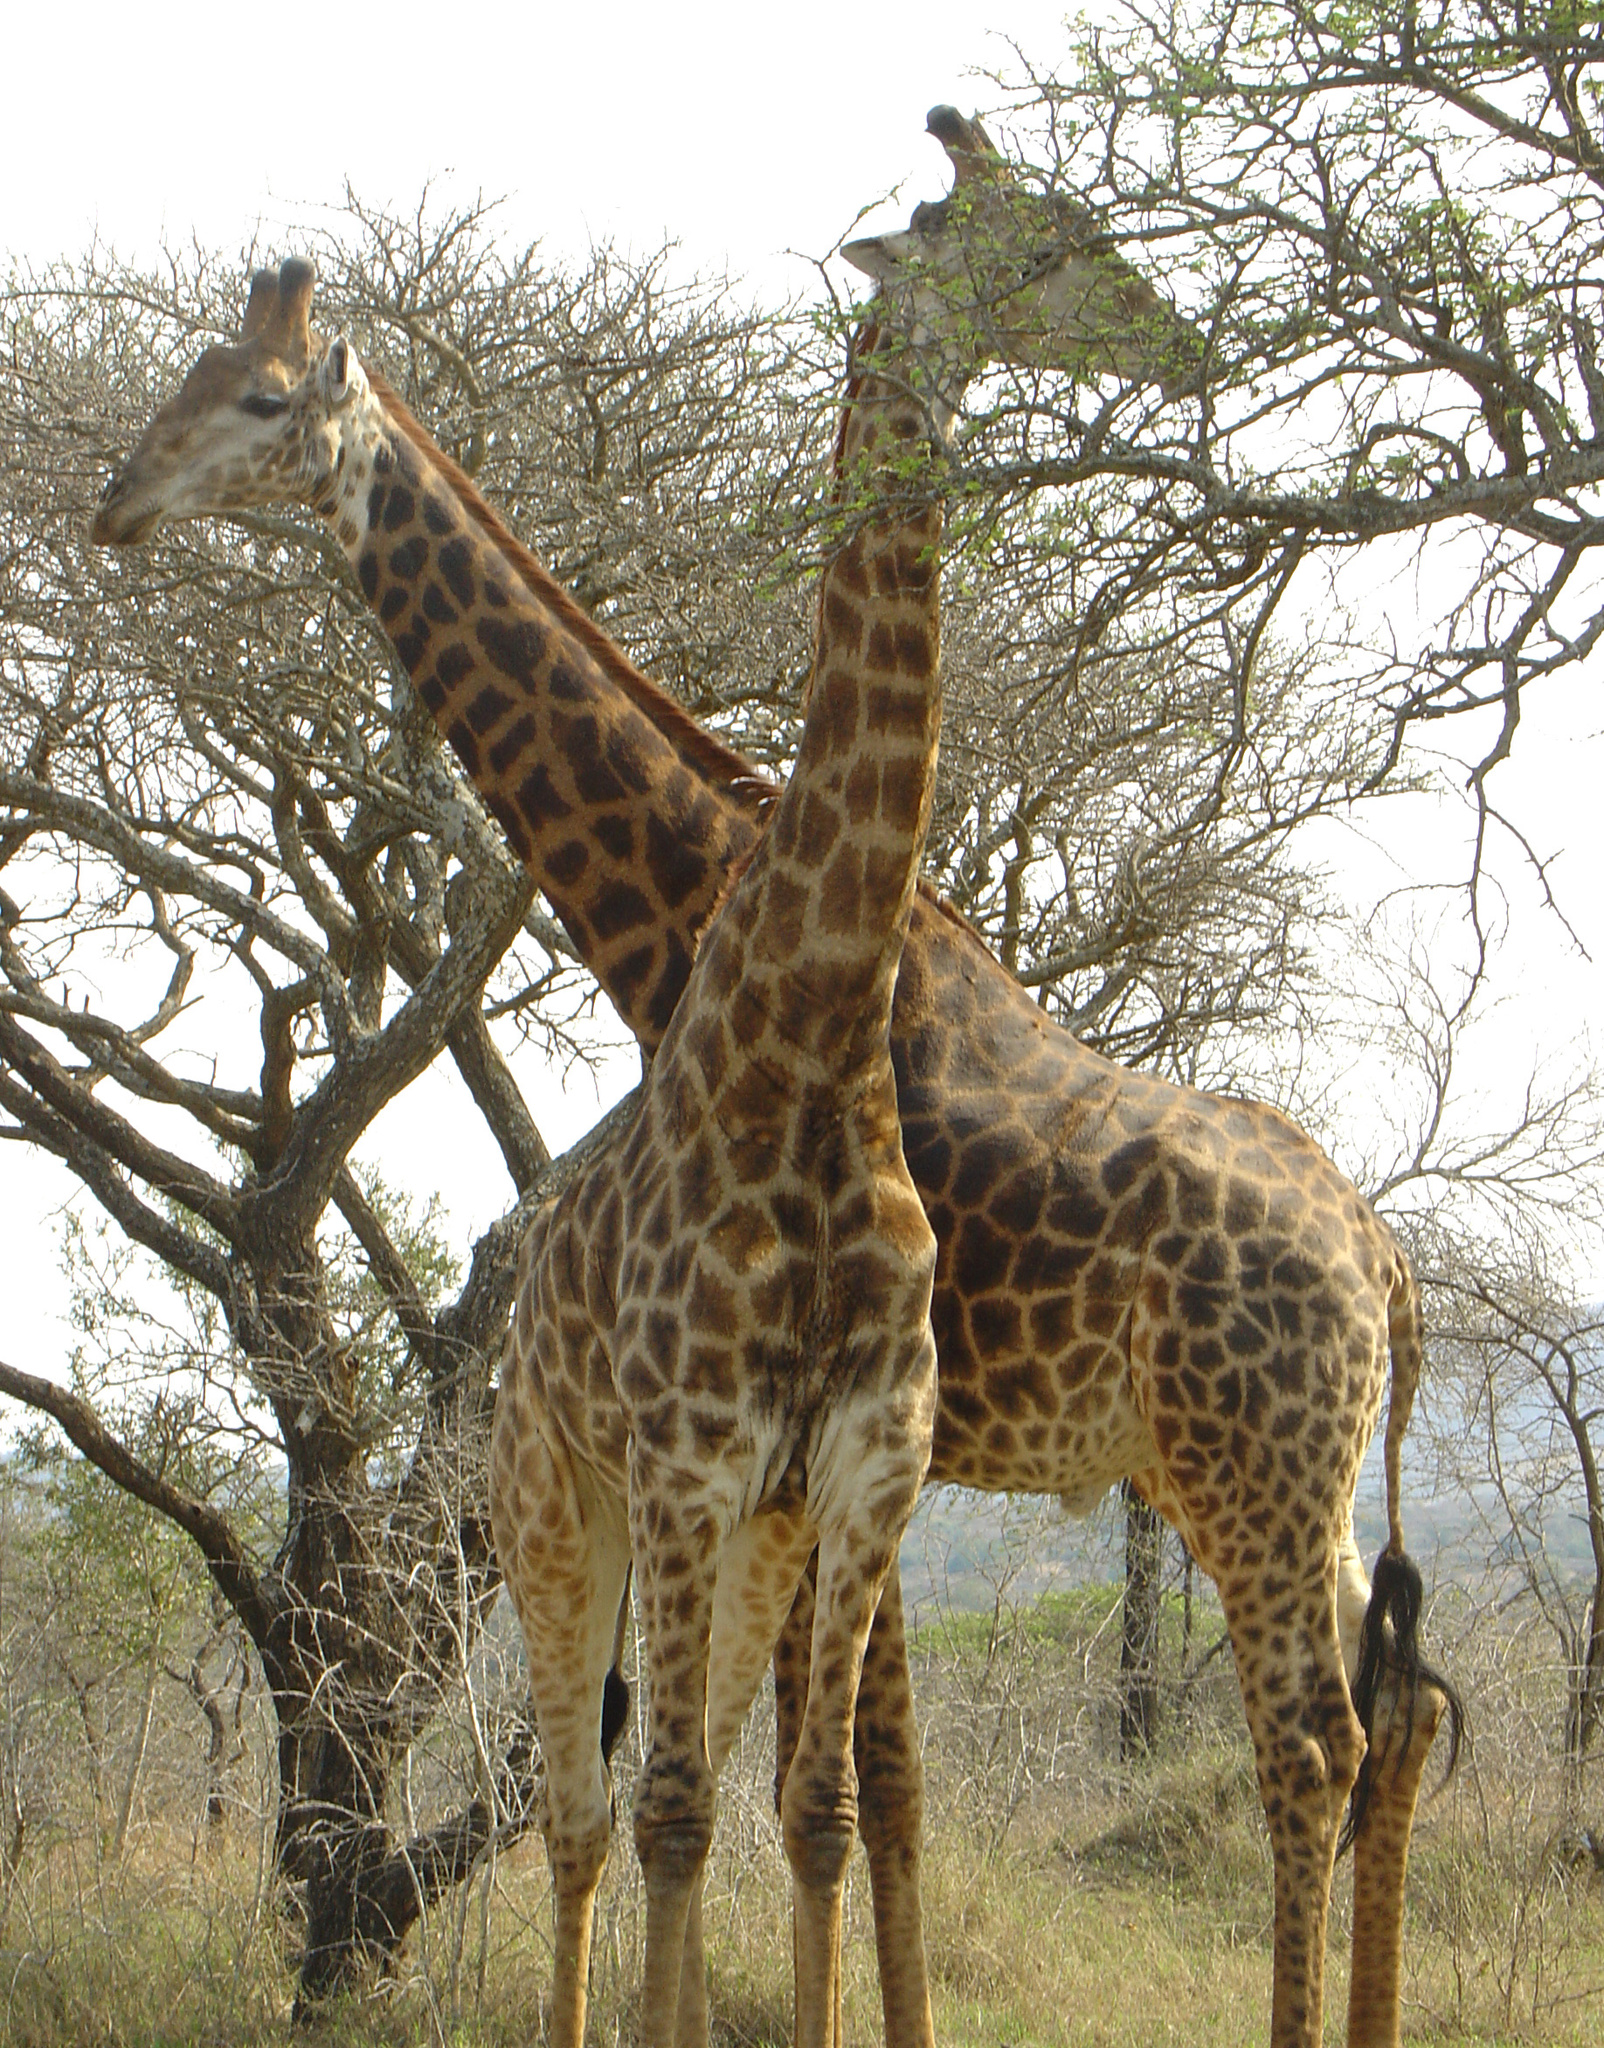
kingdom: Animalia
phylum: Chordata
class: Mammalia
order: Artiodactyla
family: Giraffidae
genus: Giraffa
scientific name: Giraffa giraffa
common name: Southern giraffe
